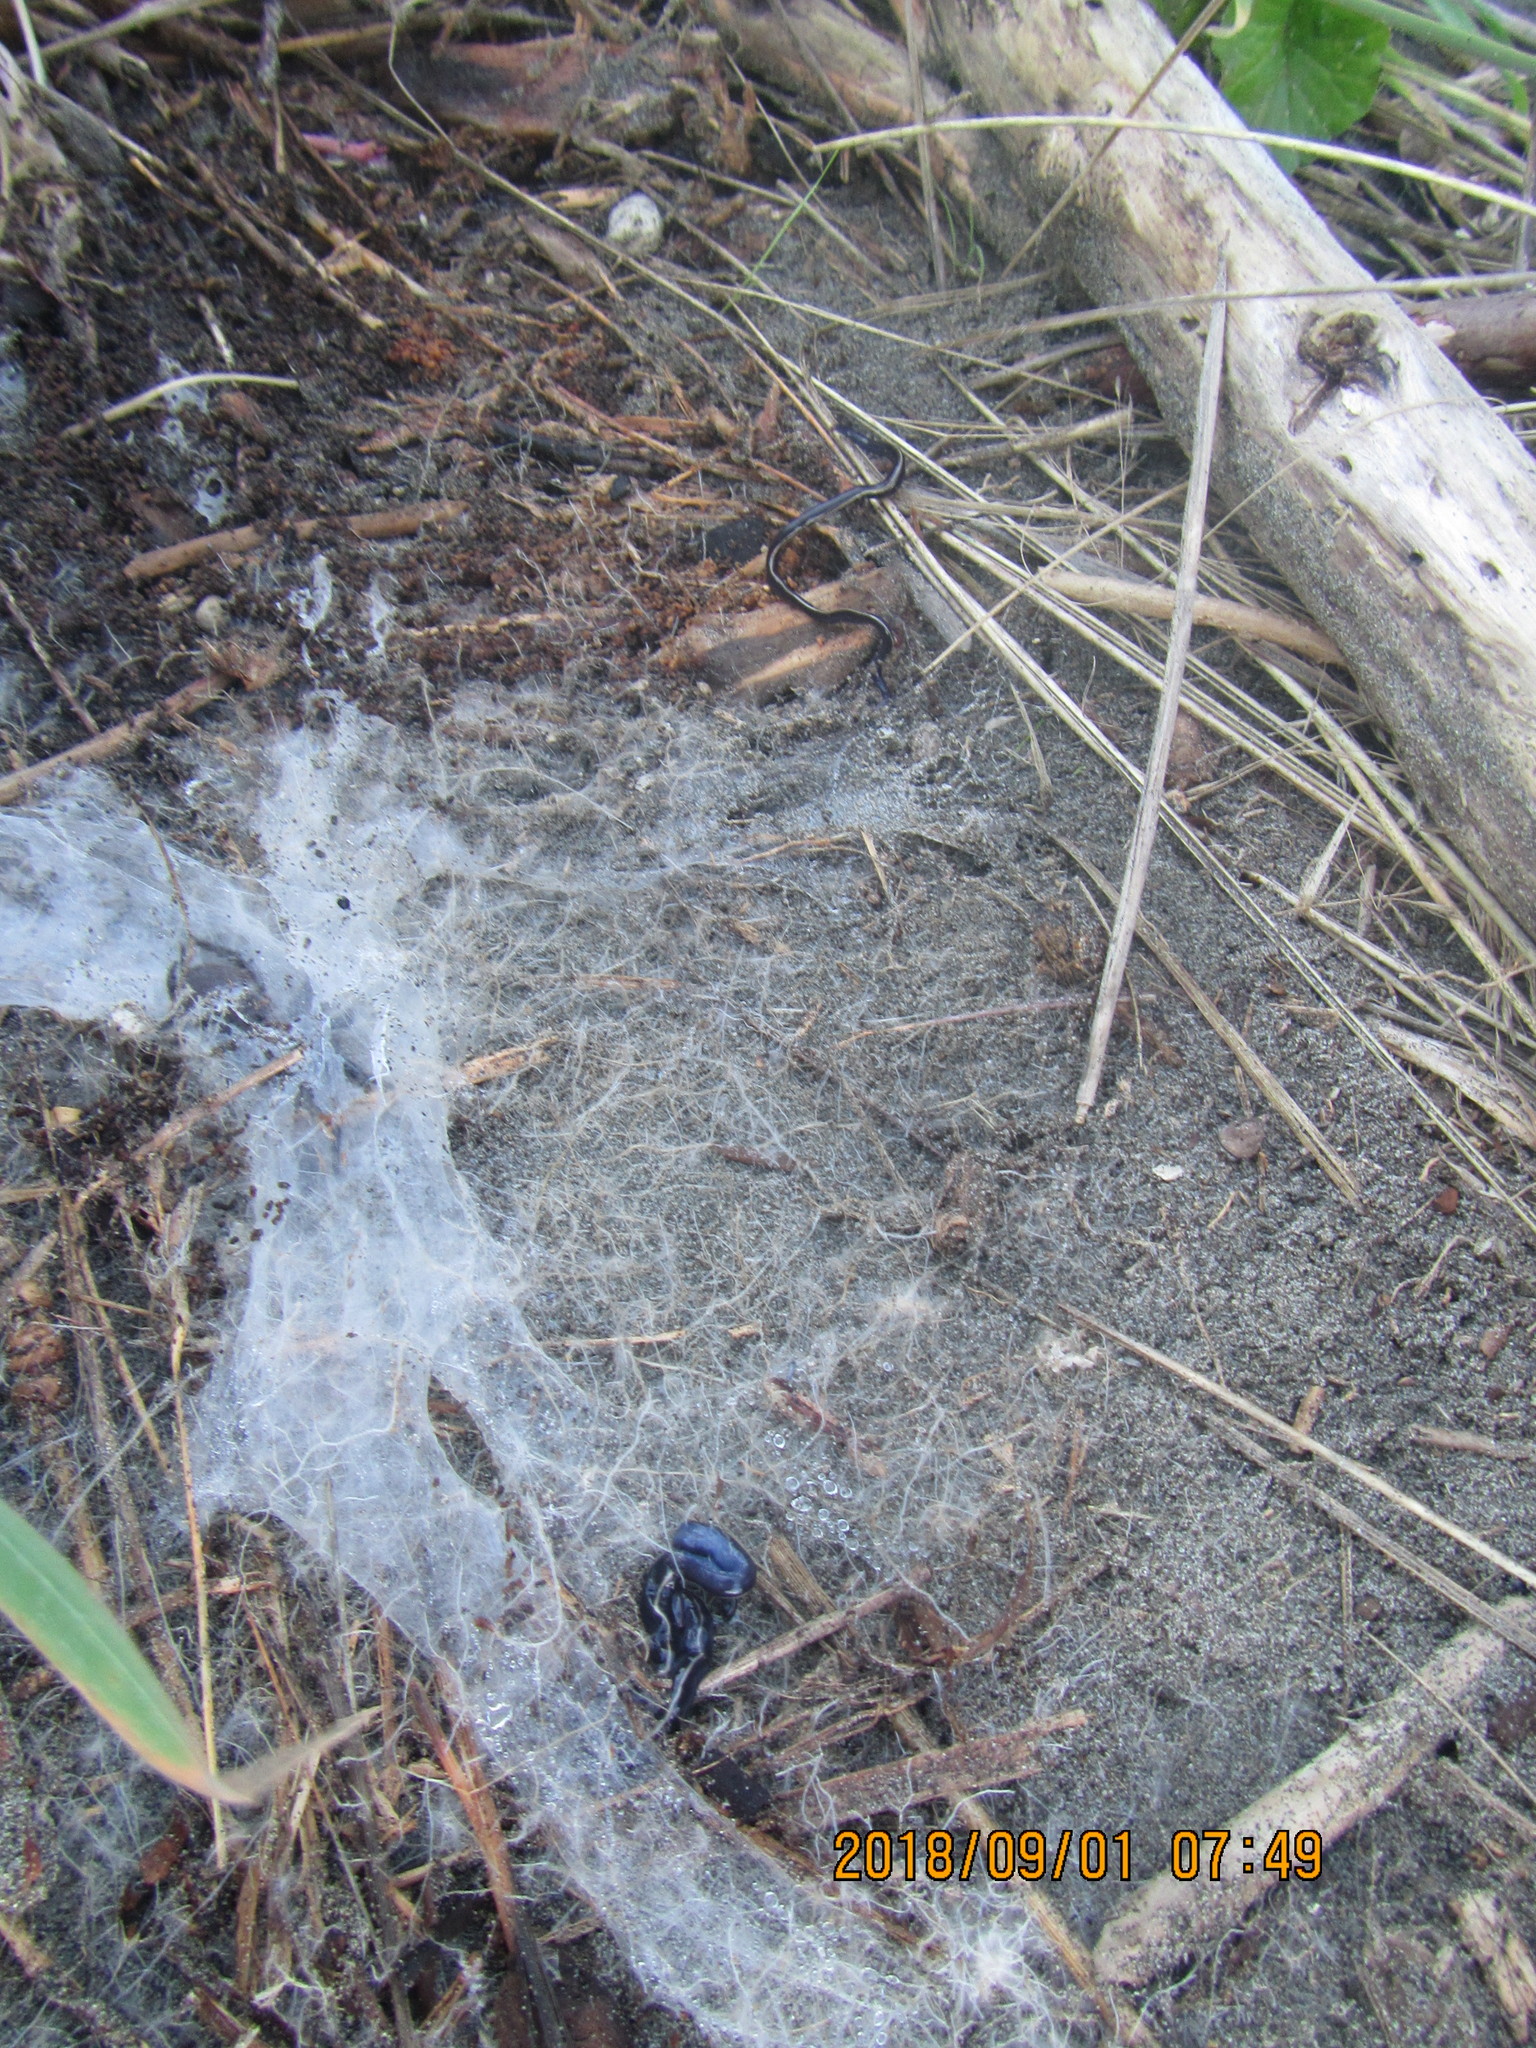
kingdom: Animalia
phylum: Platyhelminthes
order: Tricladida
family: Geoplanidae
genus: Caenoplana
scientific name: Caenoplana coerulea
